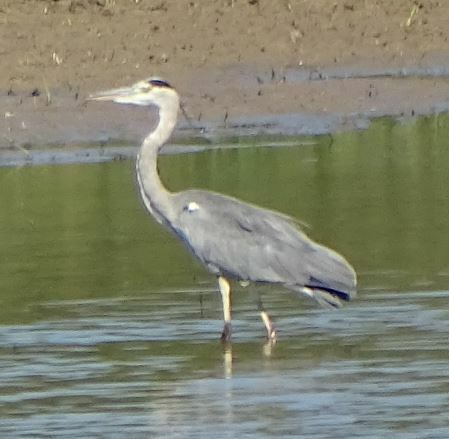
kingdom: Animalia
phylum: Chordata
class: Aves
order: Pelecaniformes
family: Ardeidae
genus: Ardea
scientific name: Ardea cinerea
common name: Grey heron
